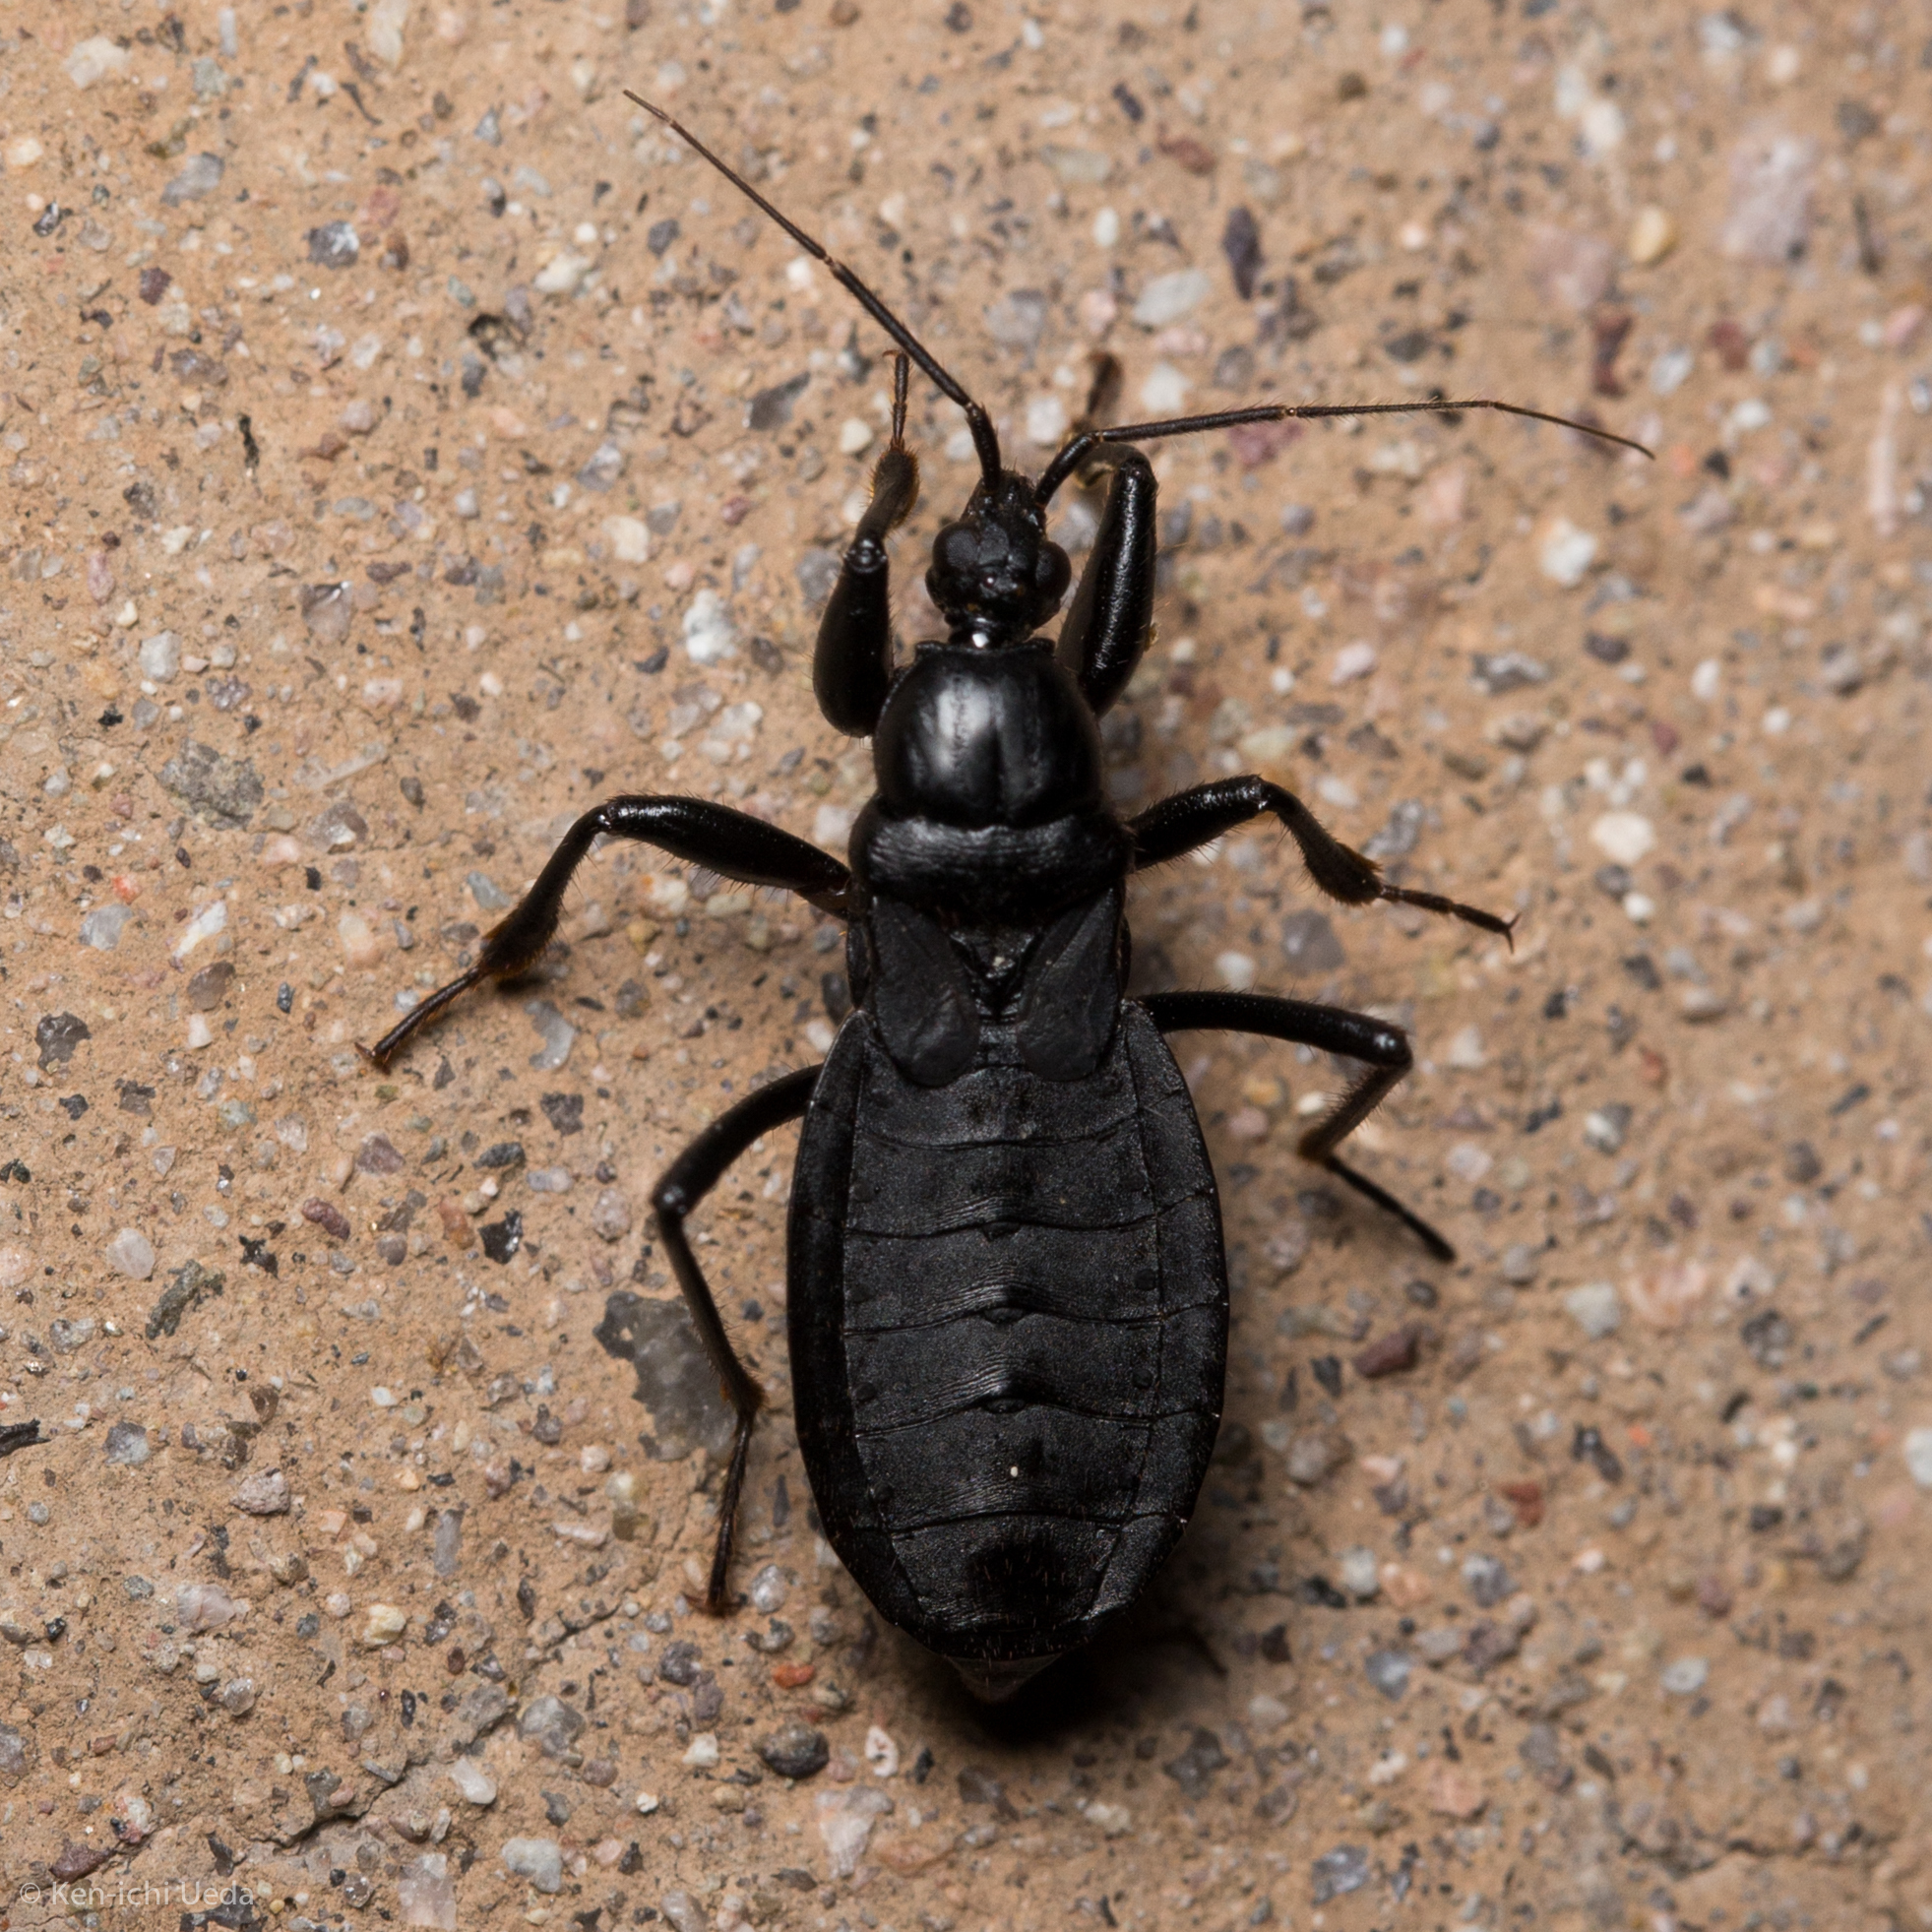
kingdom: Animalia
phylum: Arthropoda
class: Insecta
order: Hemiptera
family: Reduviidae
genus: Melanolestes
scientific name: Melanolestes picipes
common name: Assassin bug
